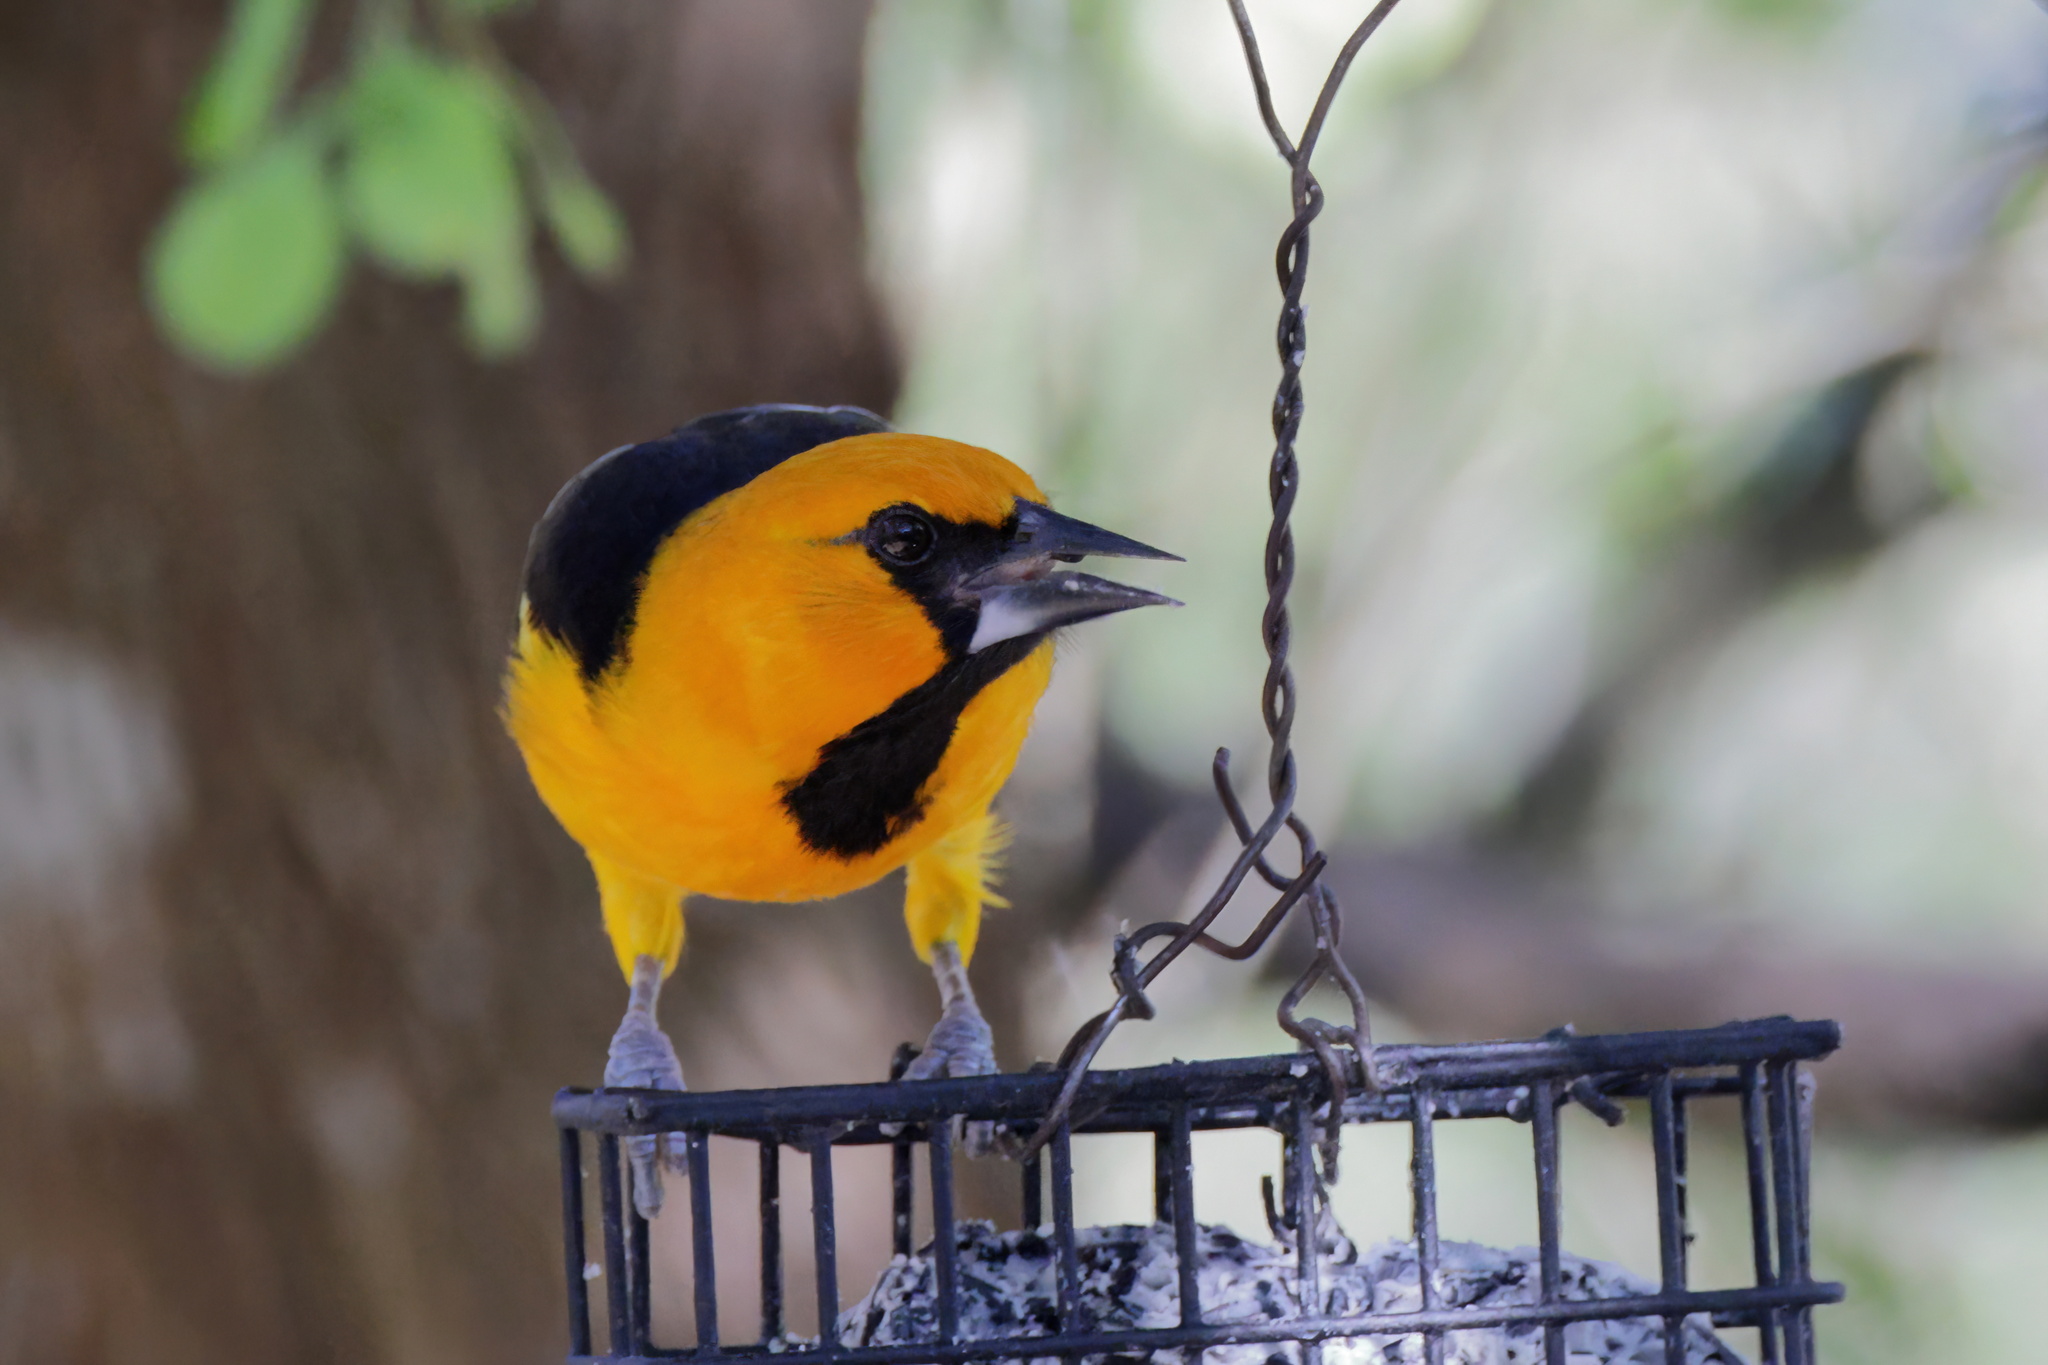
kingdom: Animalia
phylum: Chordata
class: Aves
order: Passeriformes
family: Icteridae
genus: Icterus
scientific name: Icterus gularis
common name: Altamira oriole
